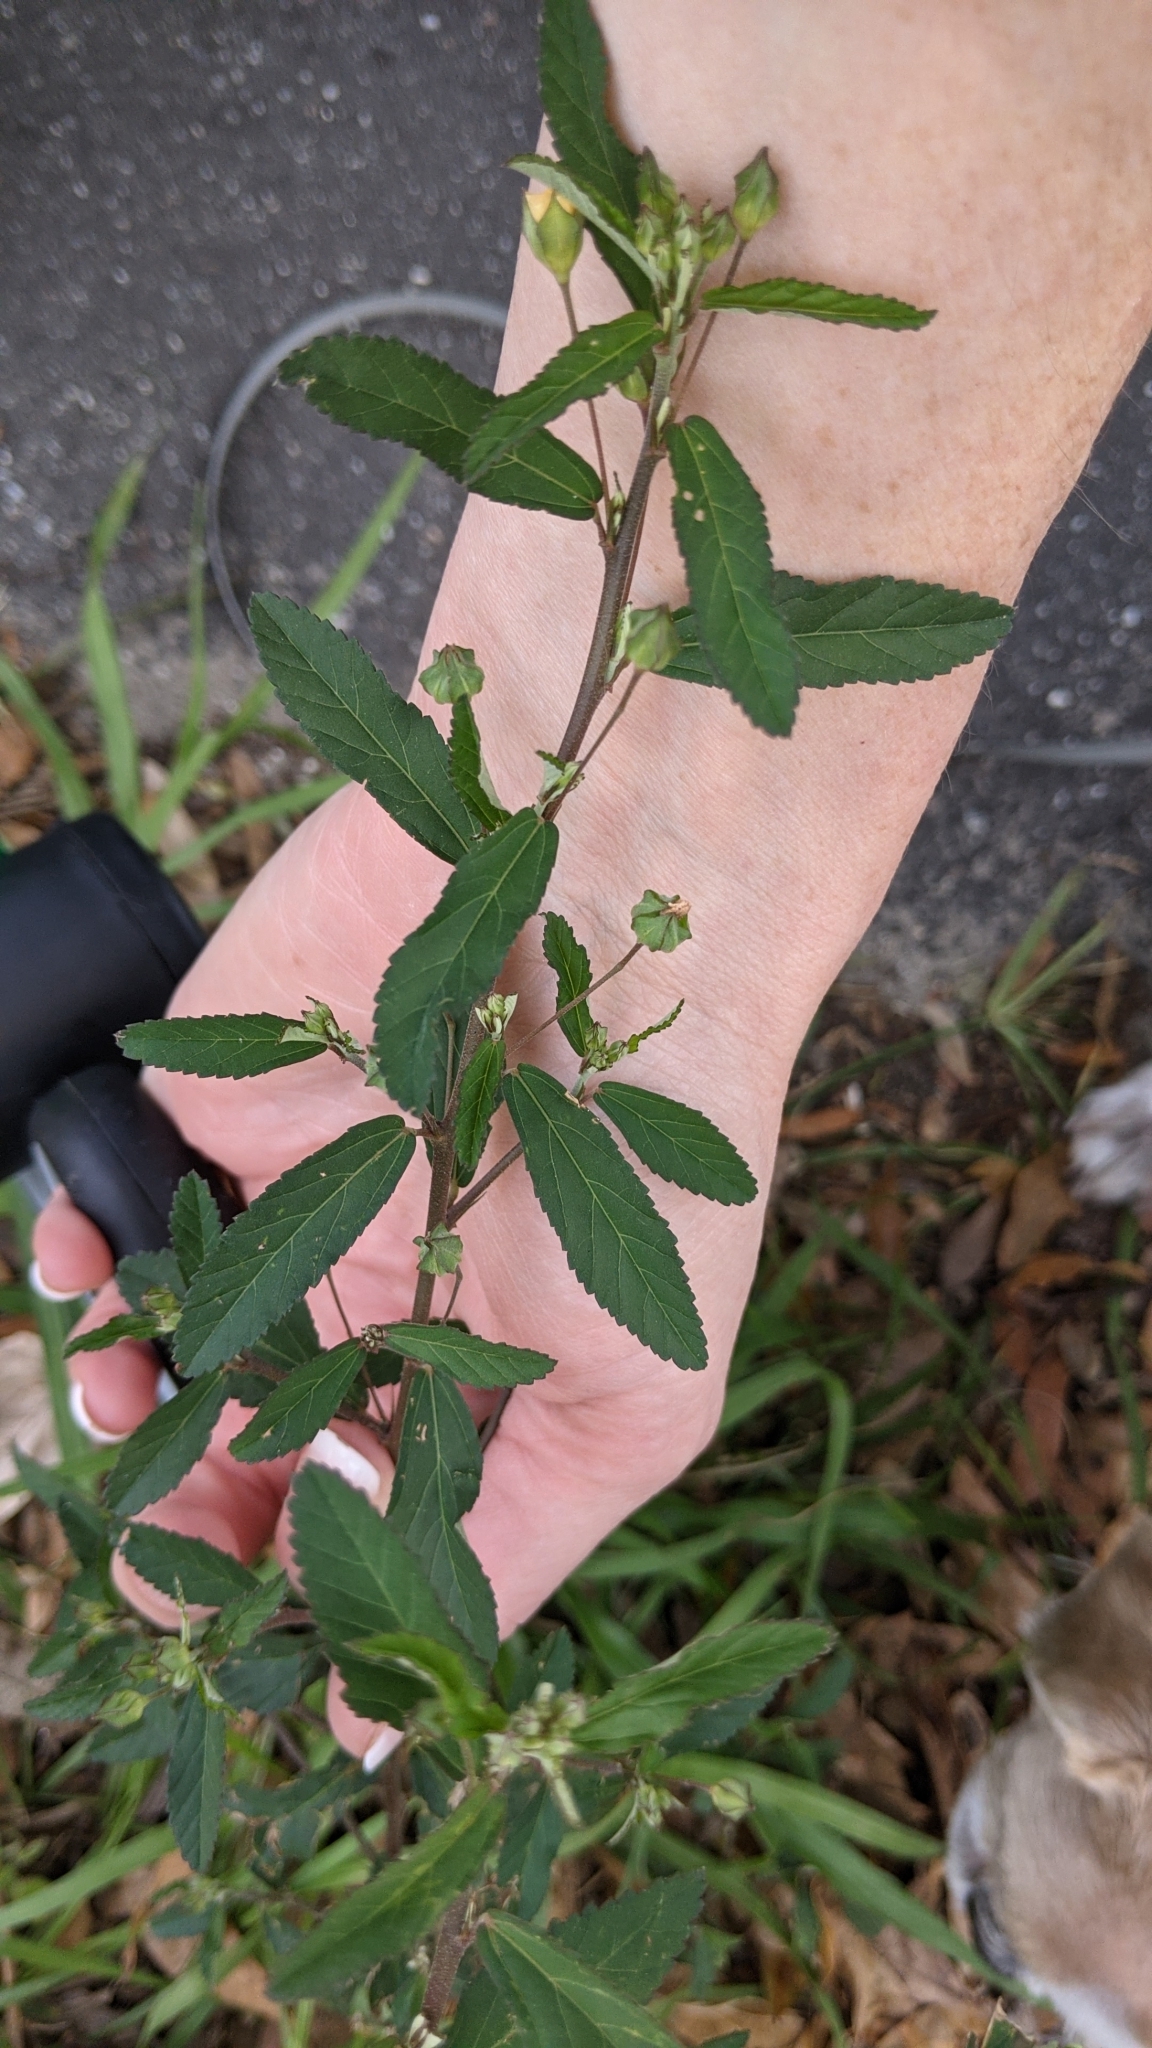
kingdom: Plantae
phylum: Tracheophyta
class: Magnoliopsida
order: Malvales
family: Malvaceae
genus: Sida
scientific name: Sida rhombifolia
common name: Queensland-hemp
